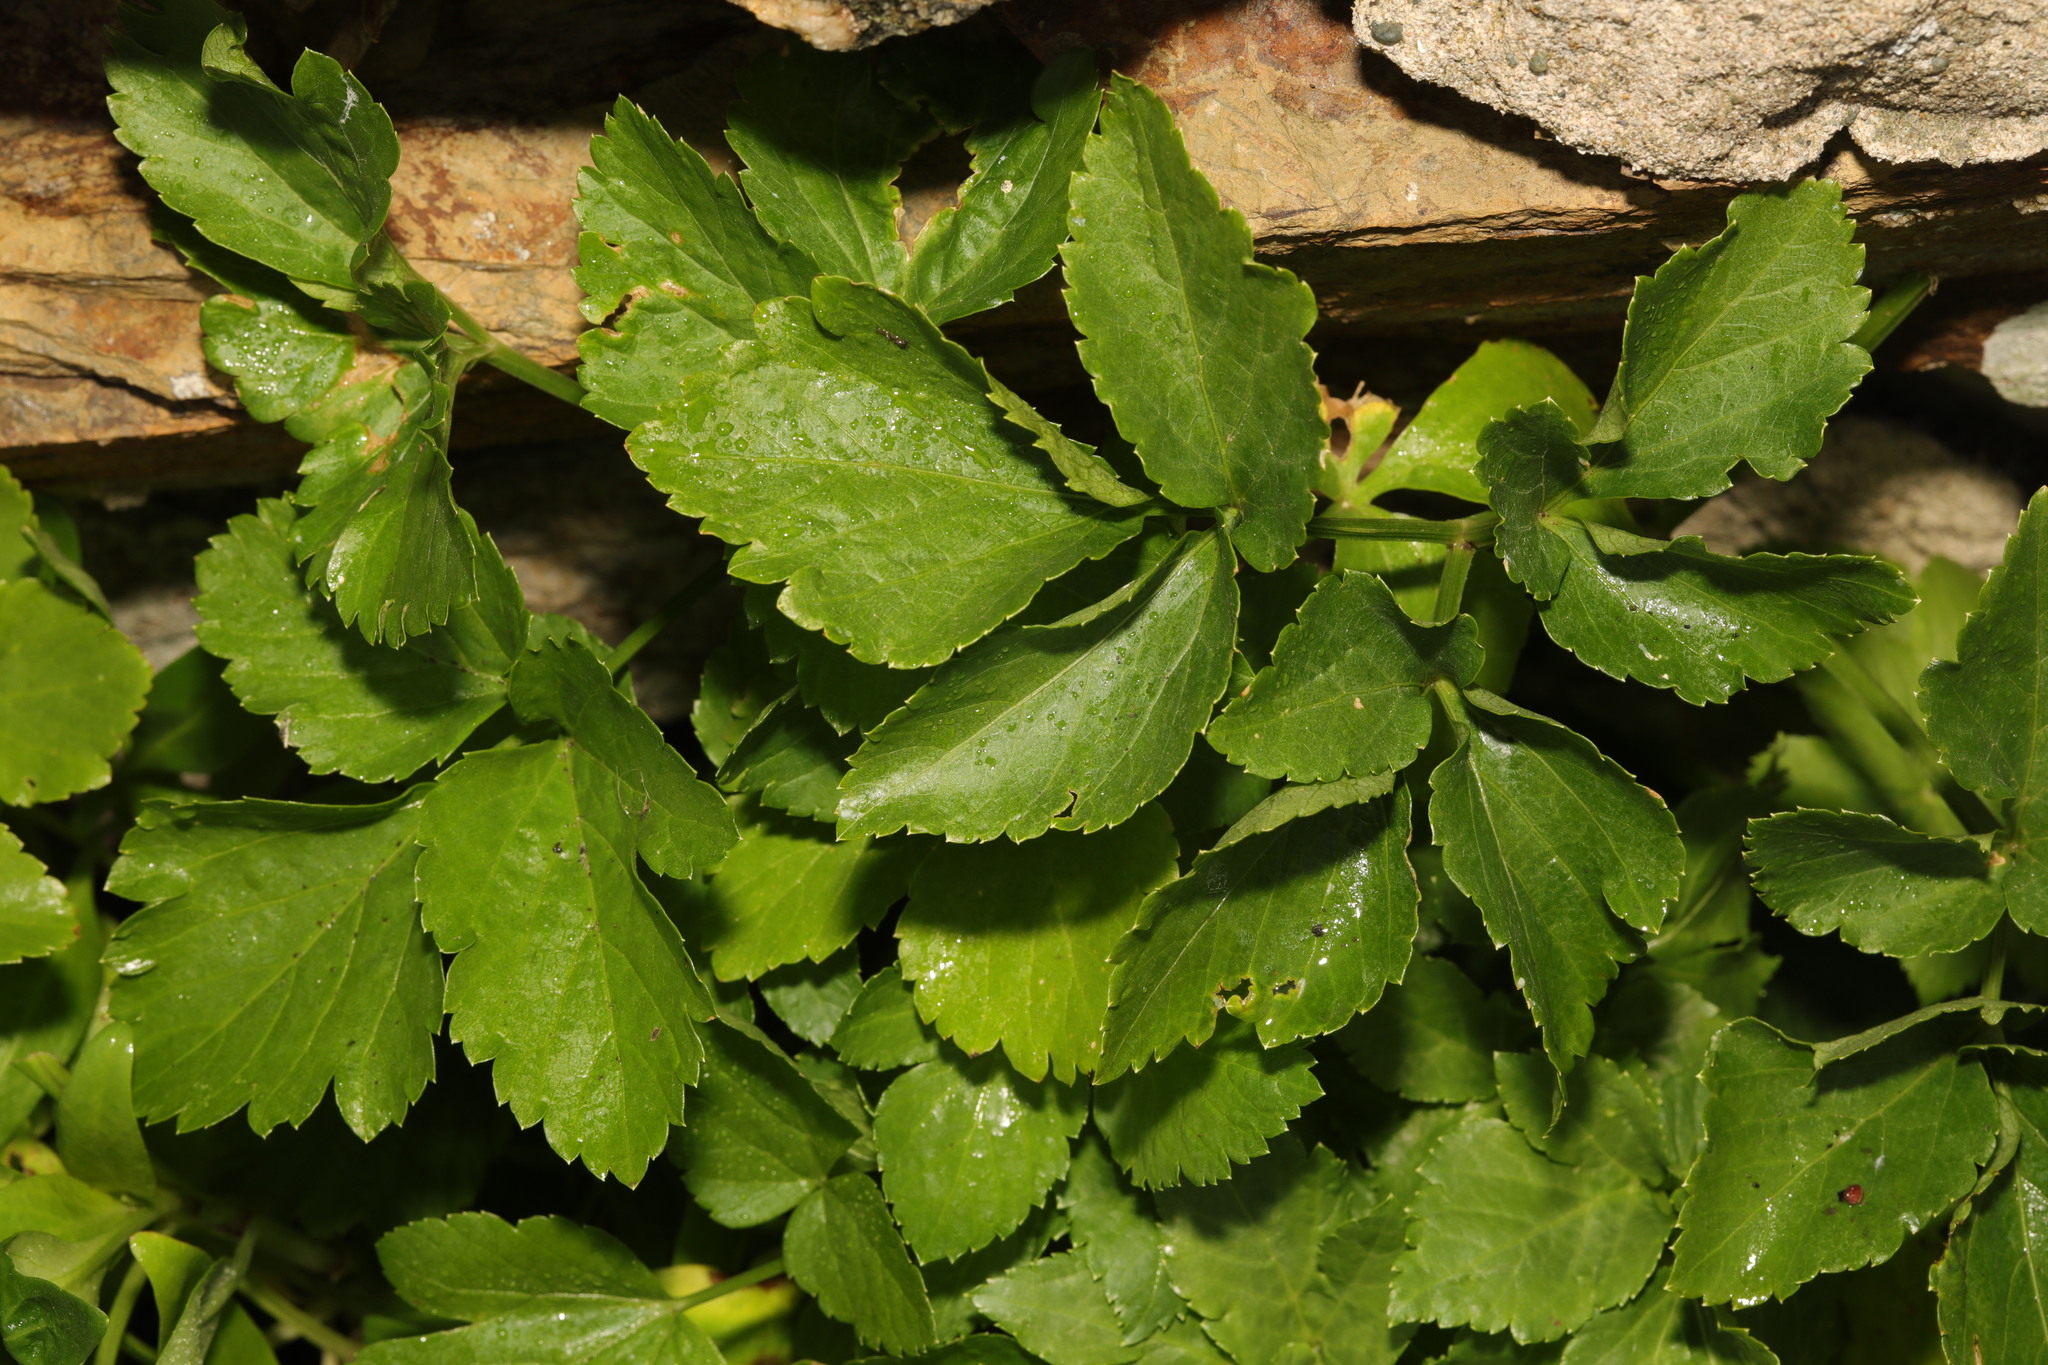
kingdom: Plantae
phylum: Tracheophyta
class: Magnoliopsida
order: Apiales
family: Apiaceae
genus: Smyrnium
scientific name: Smyrnium olusatrum
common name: Alexanders
